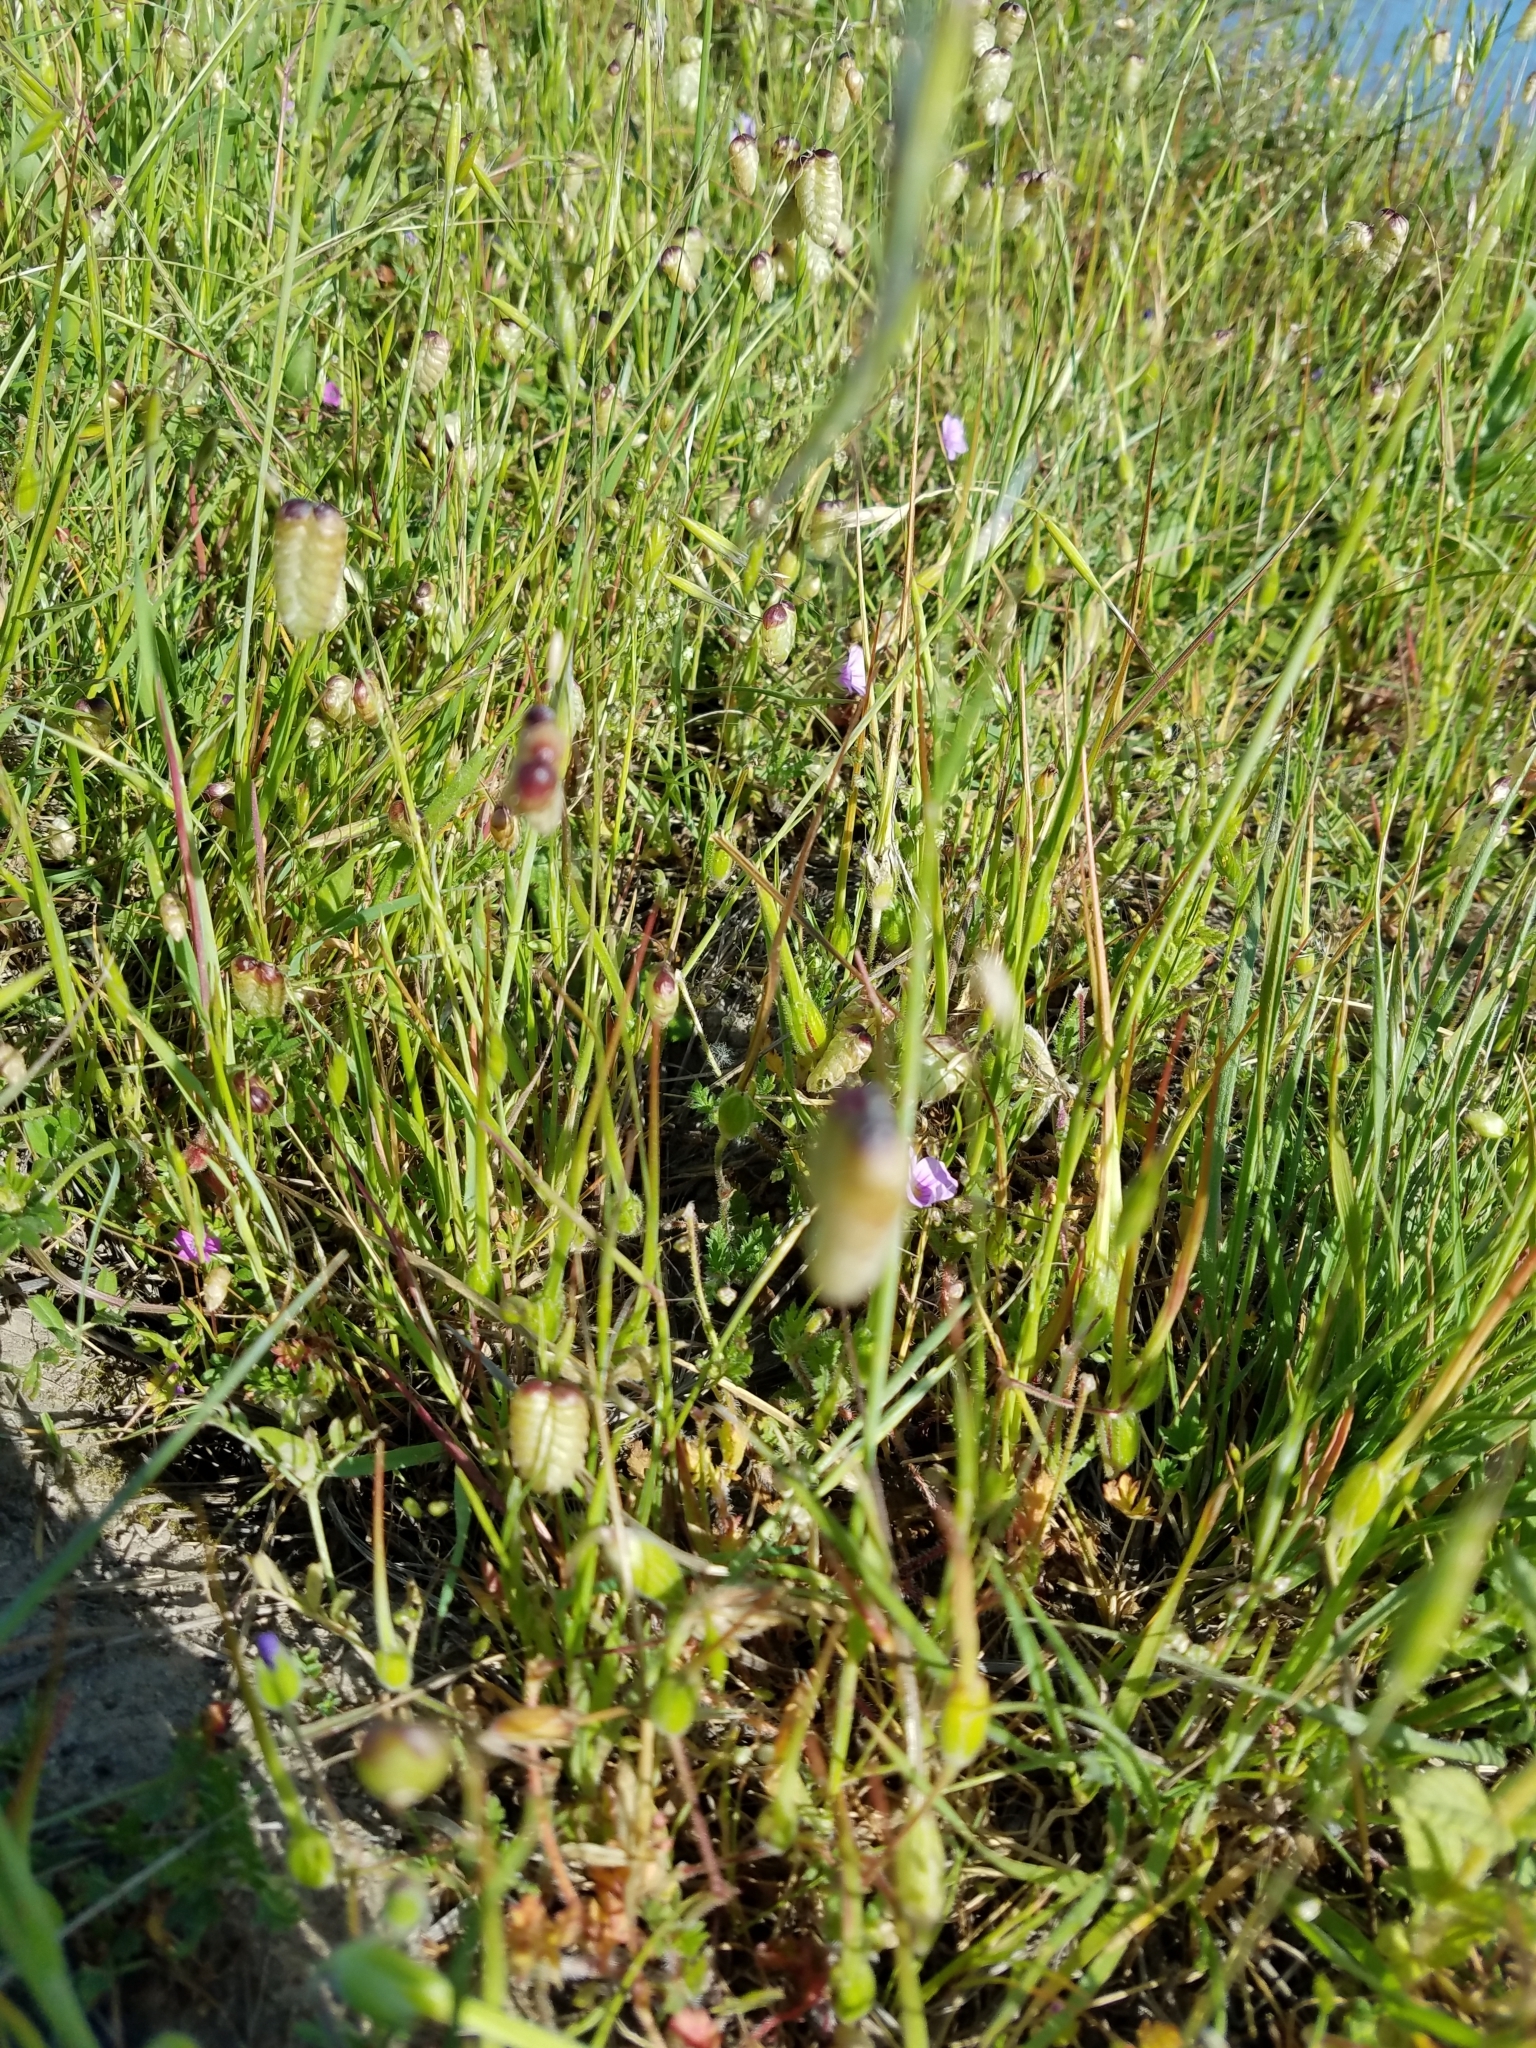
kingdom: Plantae
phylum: Tracheophyta
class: Liliopsida
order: Poales
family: Poaceae
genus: Briza
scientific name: Briza maxima
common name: Big quakinggrass
